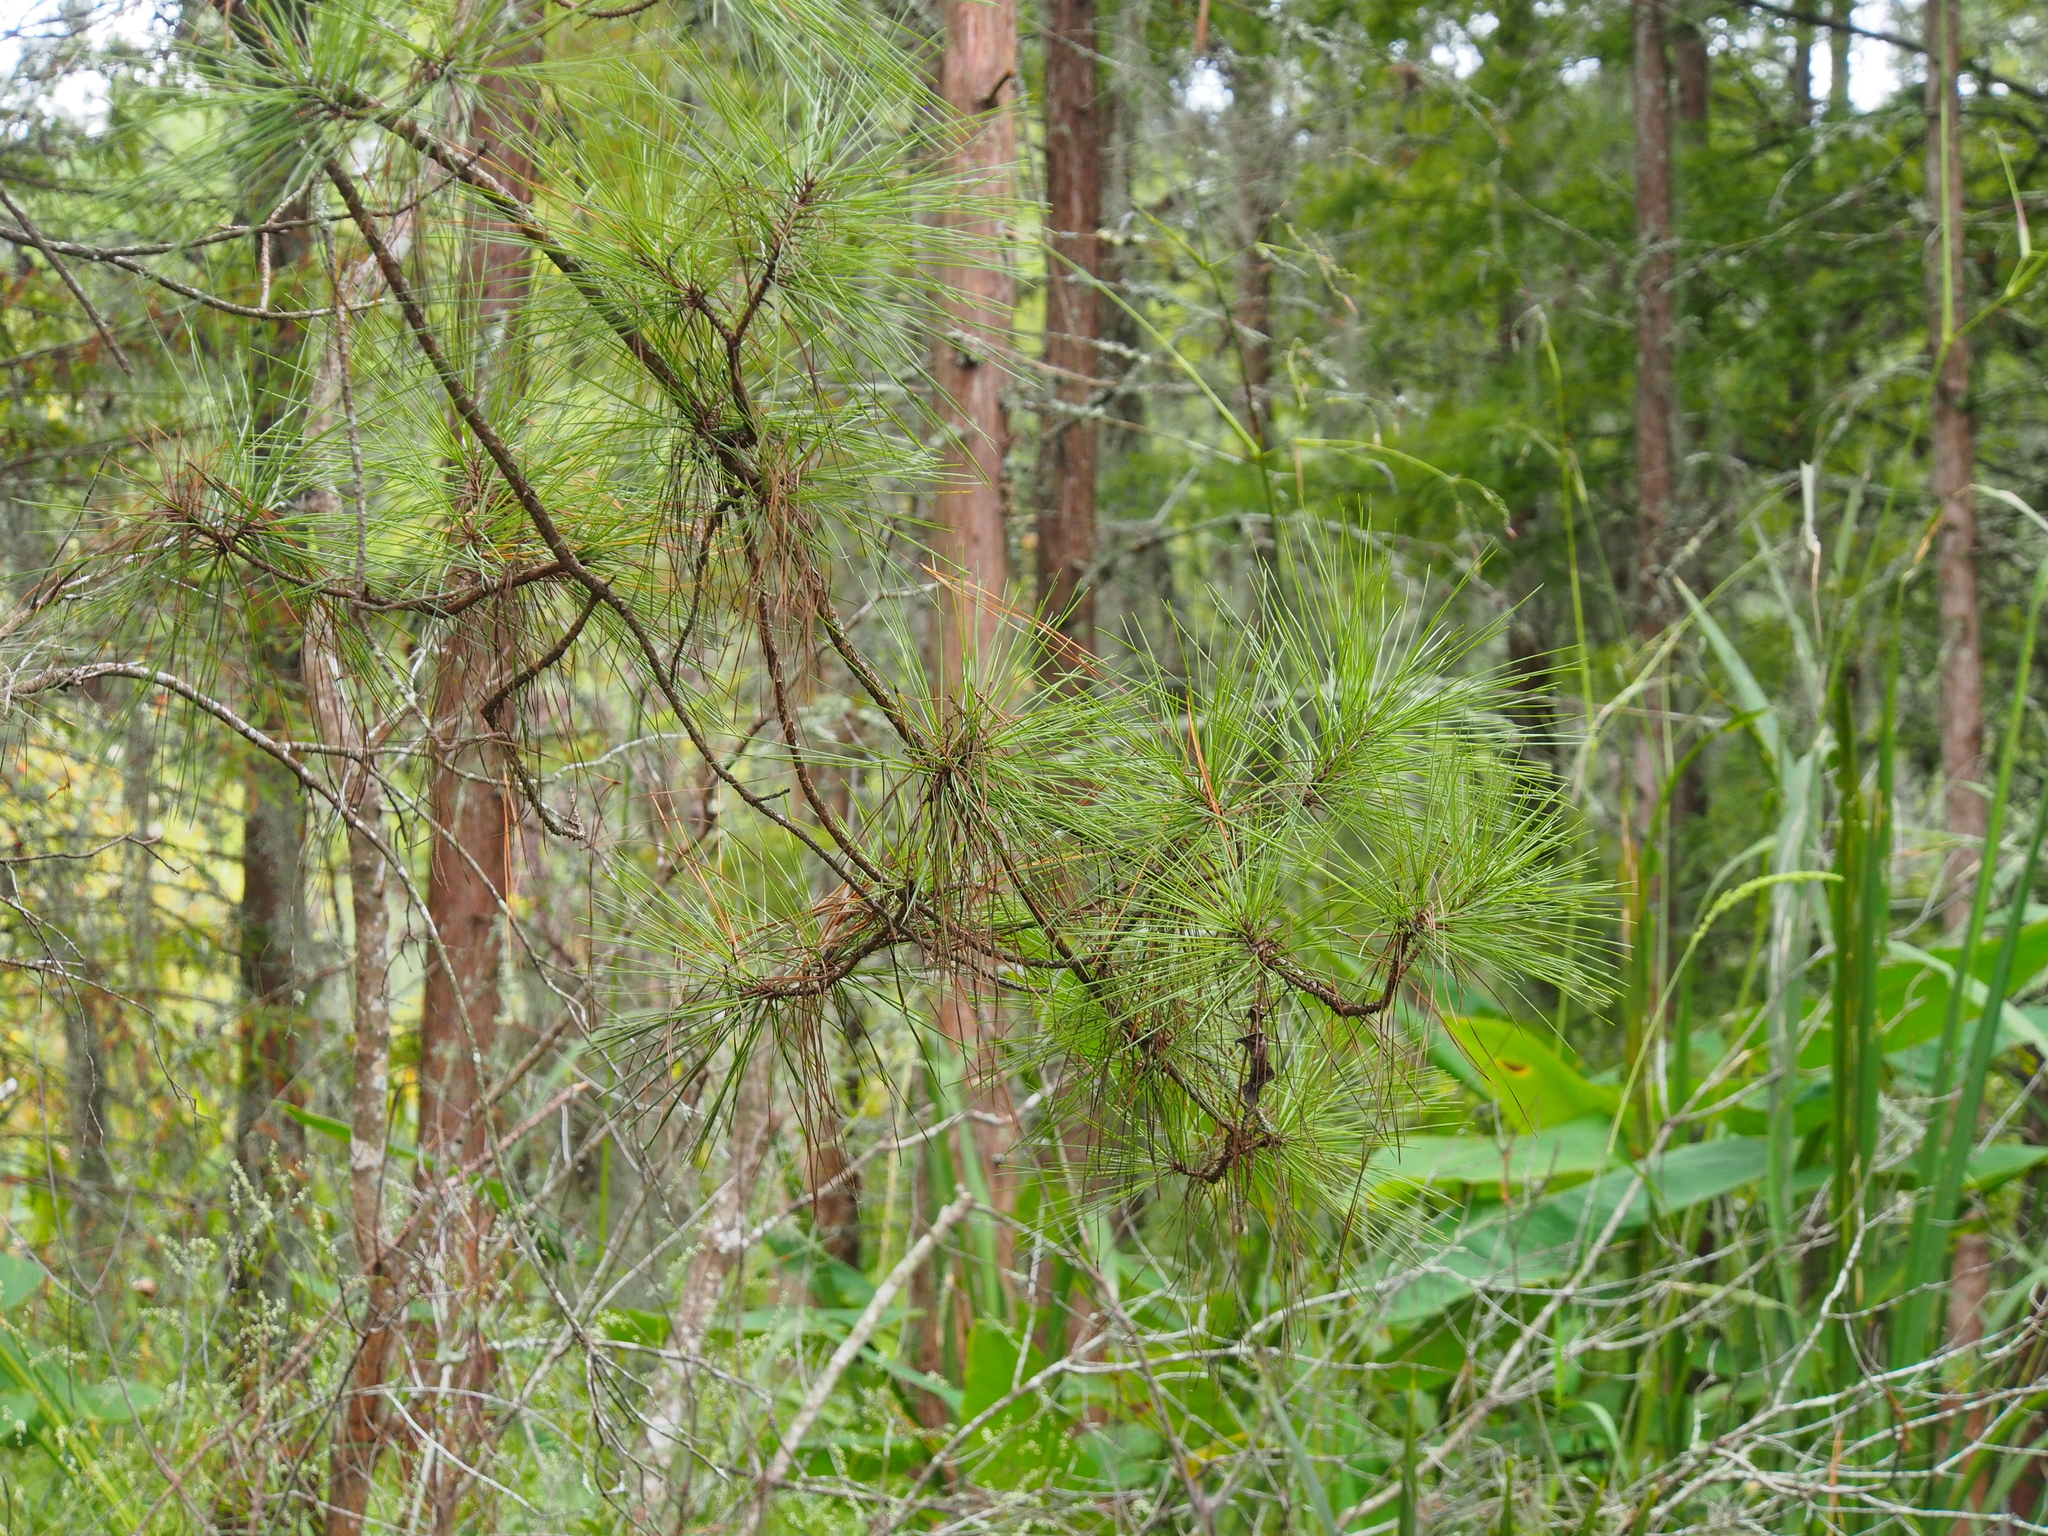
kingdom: Plantae
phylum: Tracheophyta
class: Pinopsida
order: Pinales
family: Pinaceae
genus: Pinus
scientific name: Pinus taeda
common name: Loblolly pine
